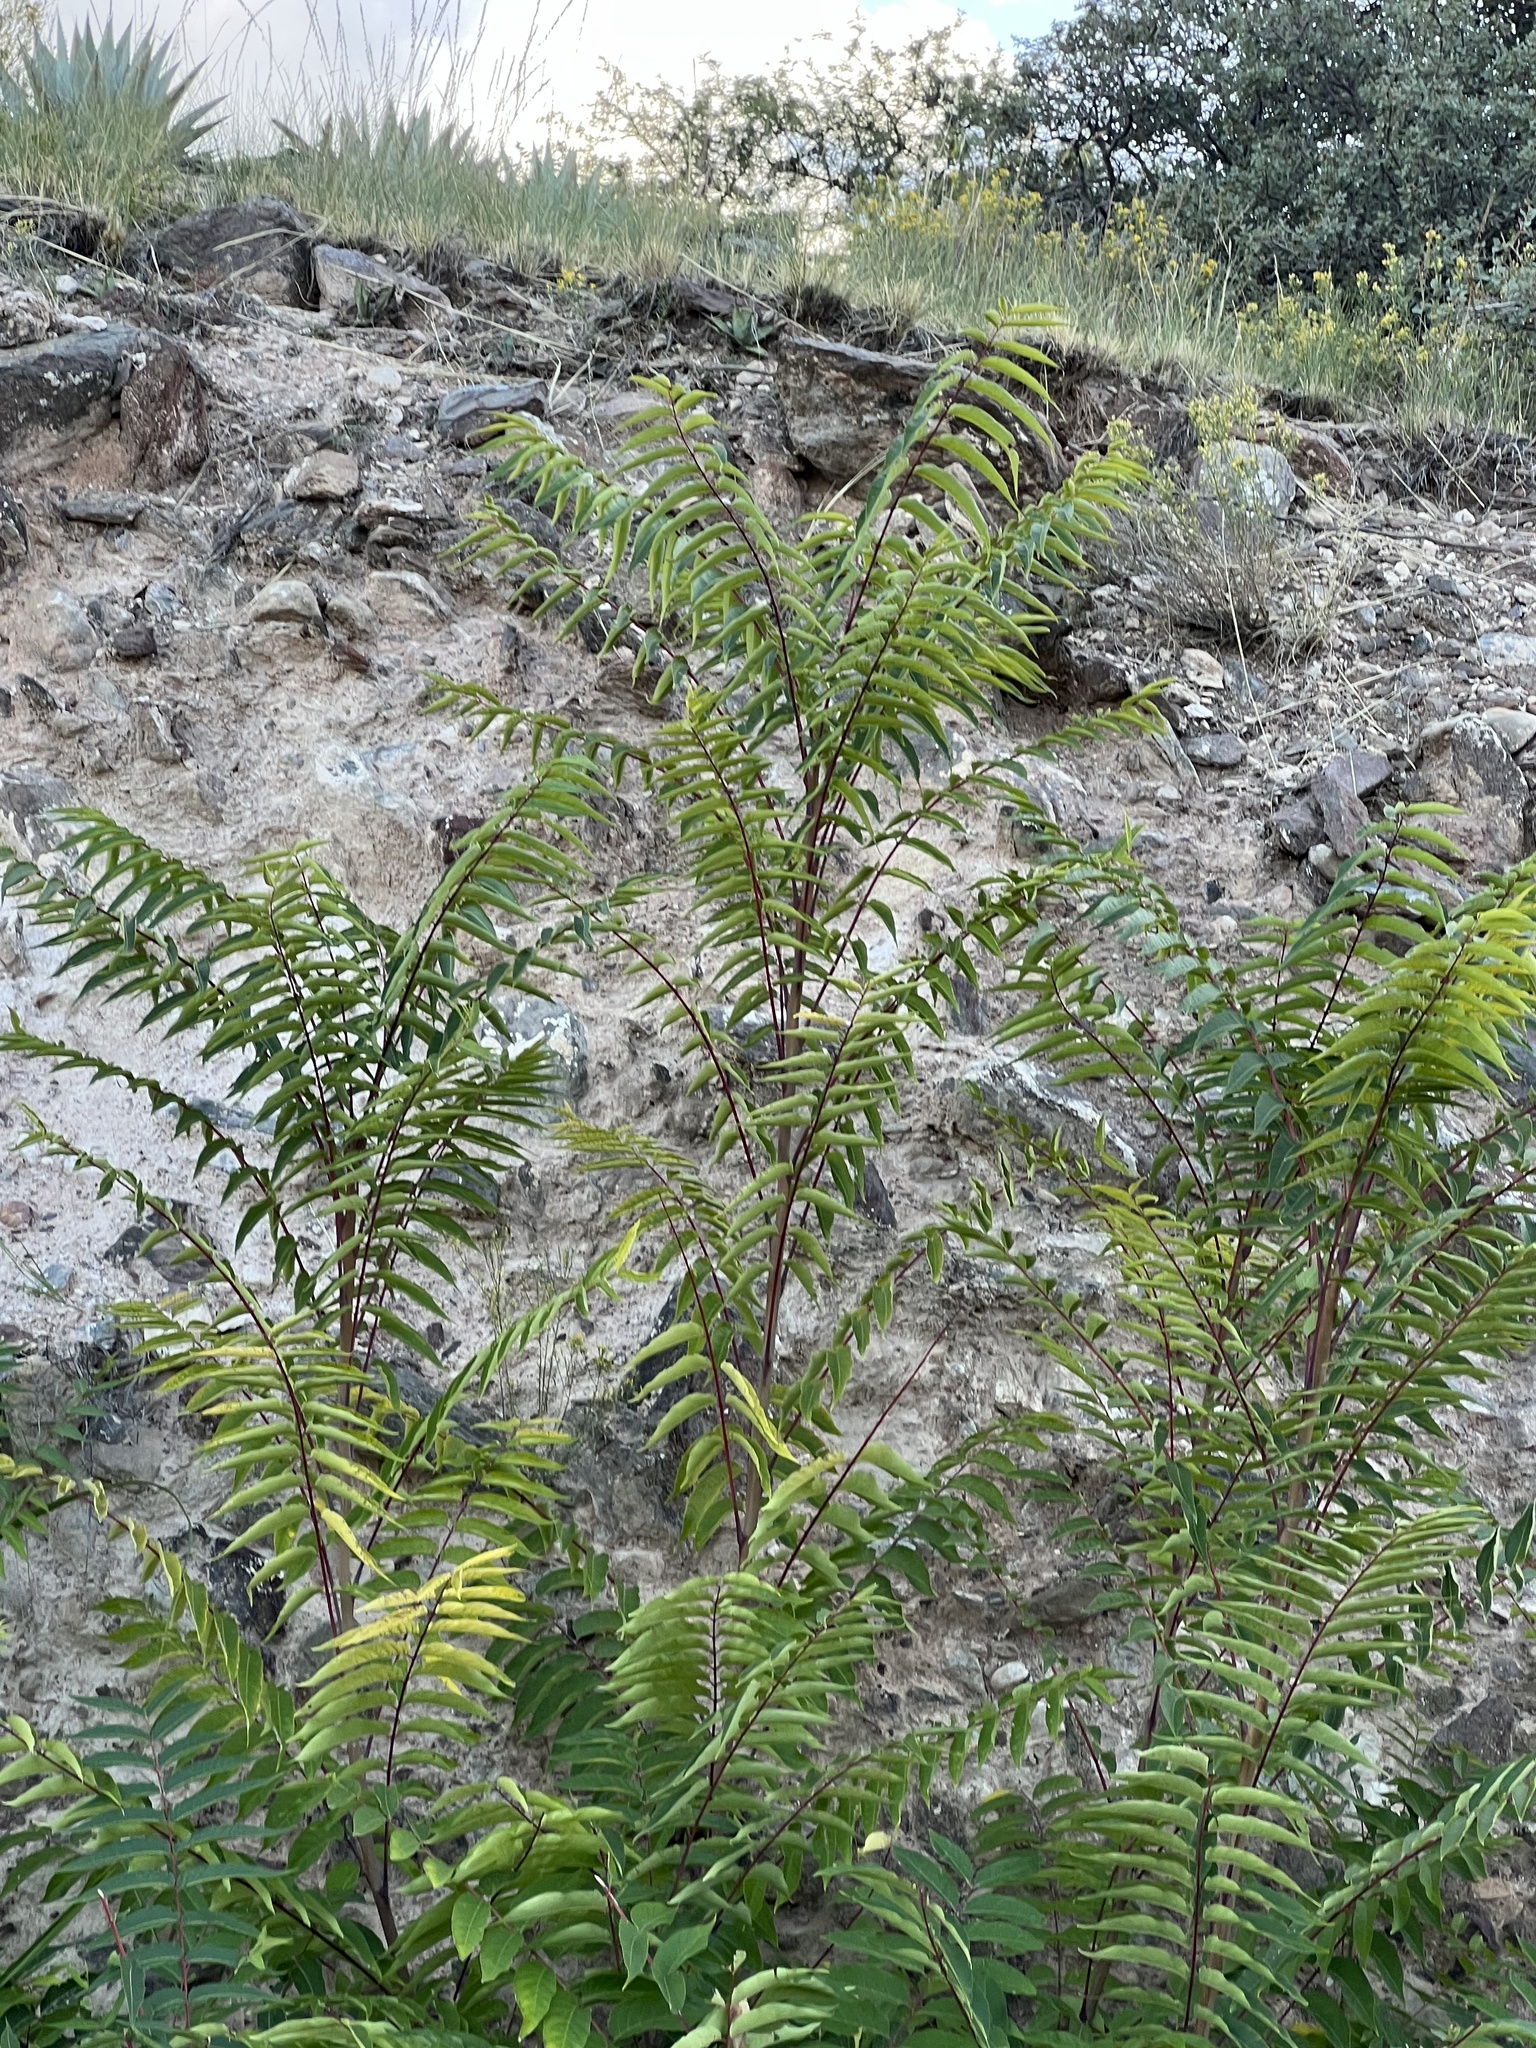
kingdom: Plantae
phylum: Tracheophyta
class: Magnoliopsida
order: Sapindales
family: Simaroubaceae
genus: Ailanthus
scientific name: Ailanthus altissima
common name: Tree-of-heaven
